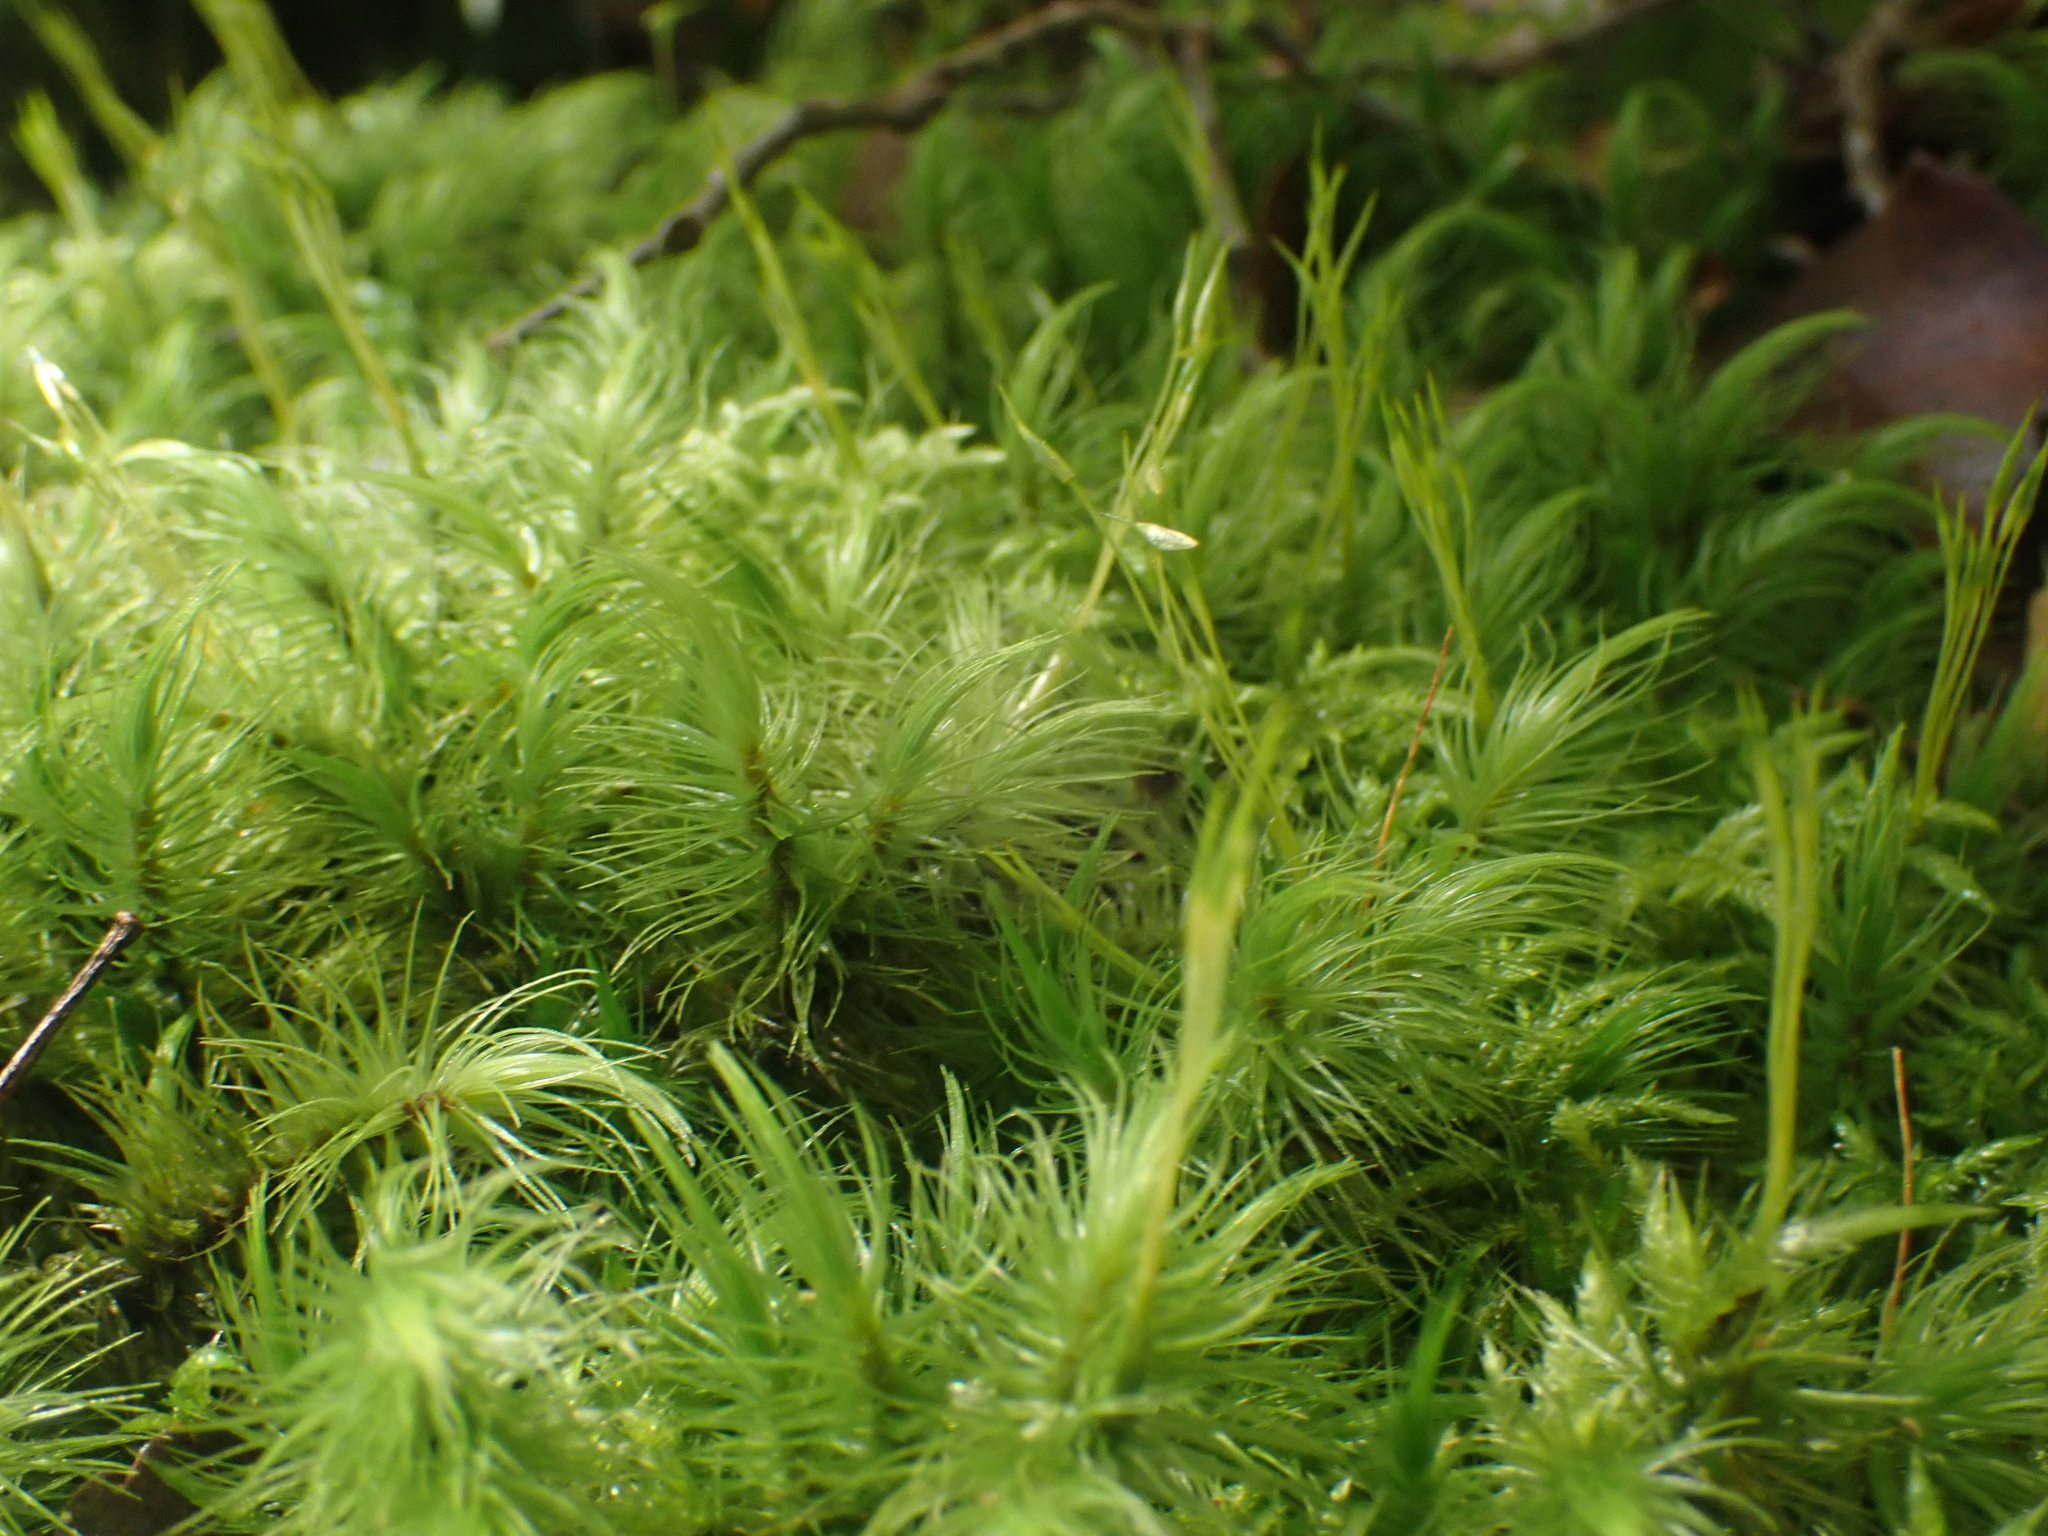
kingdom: Plantae
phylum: Bryophyta
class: Bryopsida
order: Dicranales
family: Dicranaceae
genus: Dicranoloma
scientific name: Dicranoloma dicarpon
